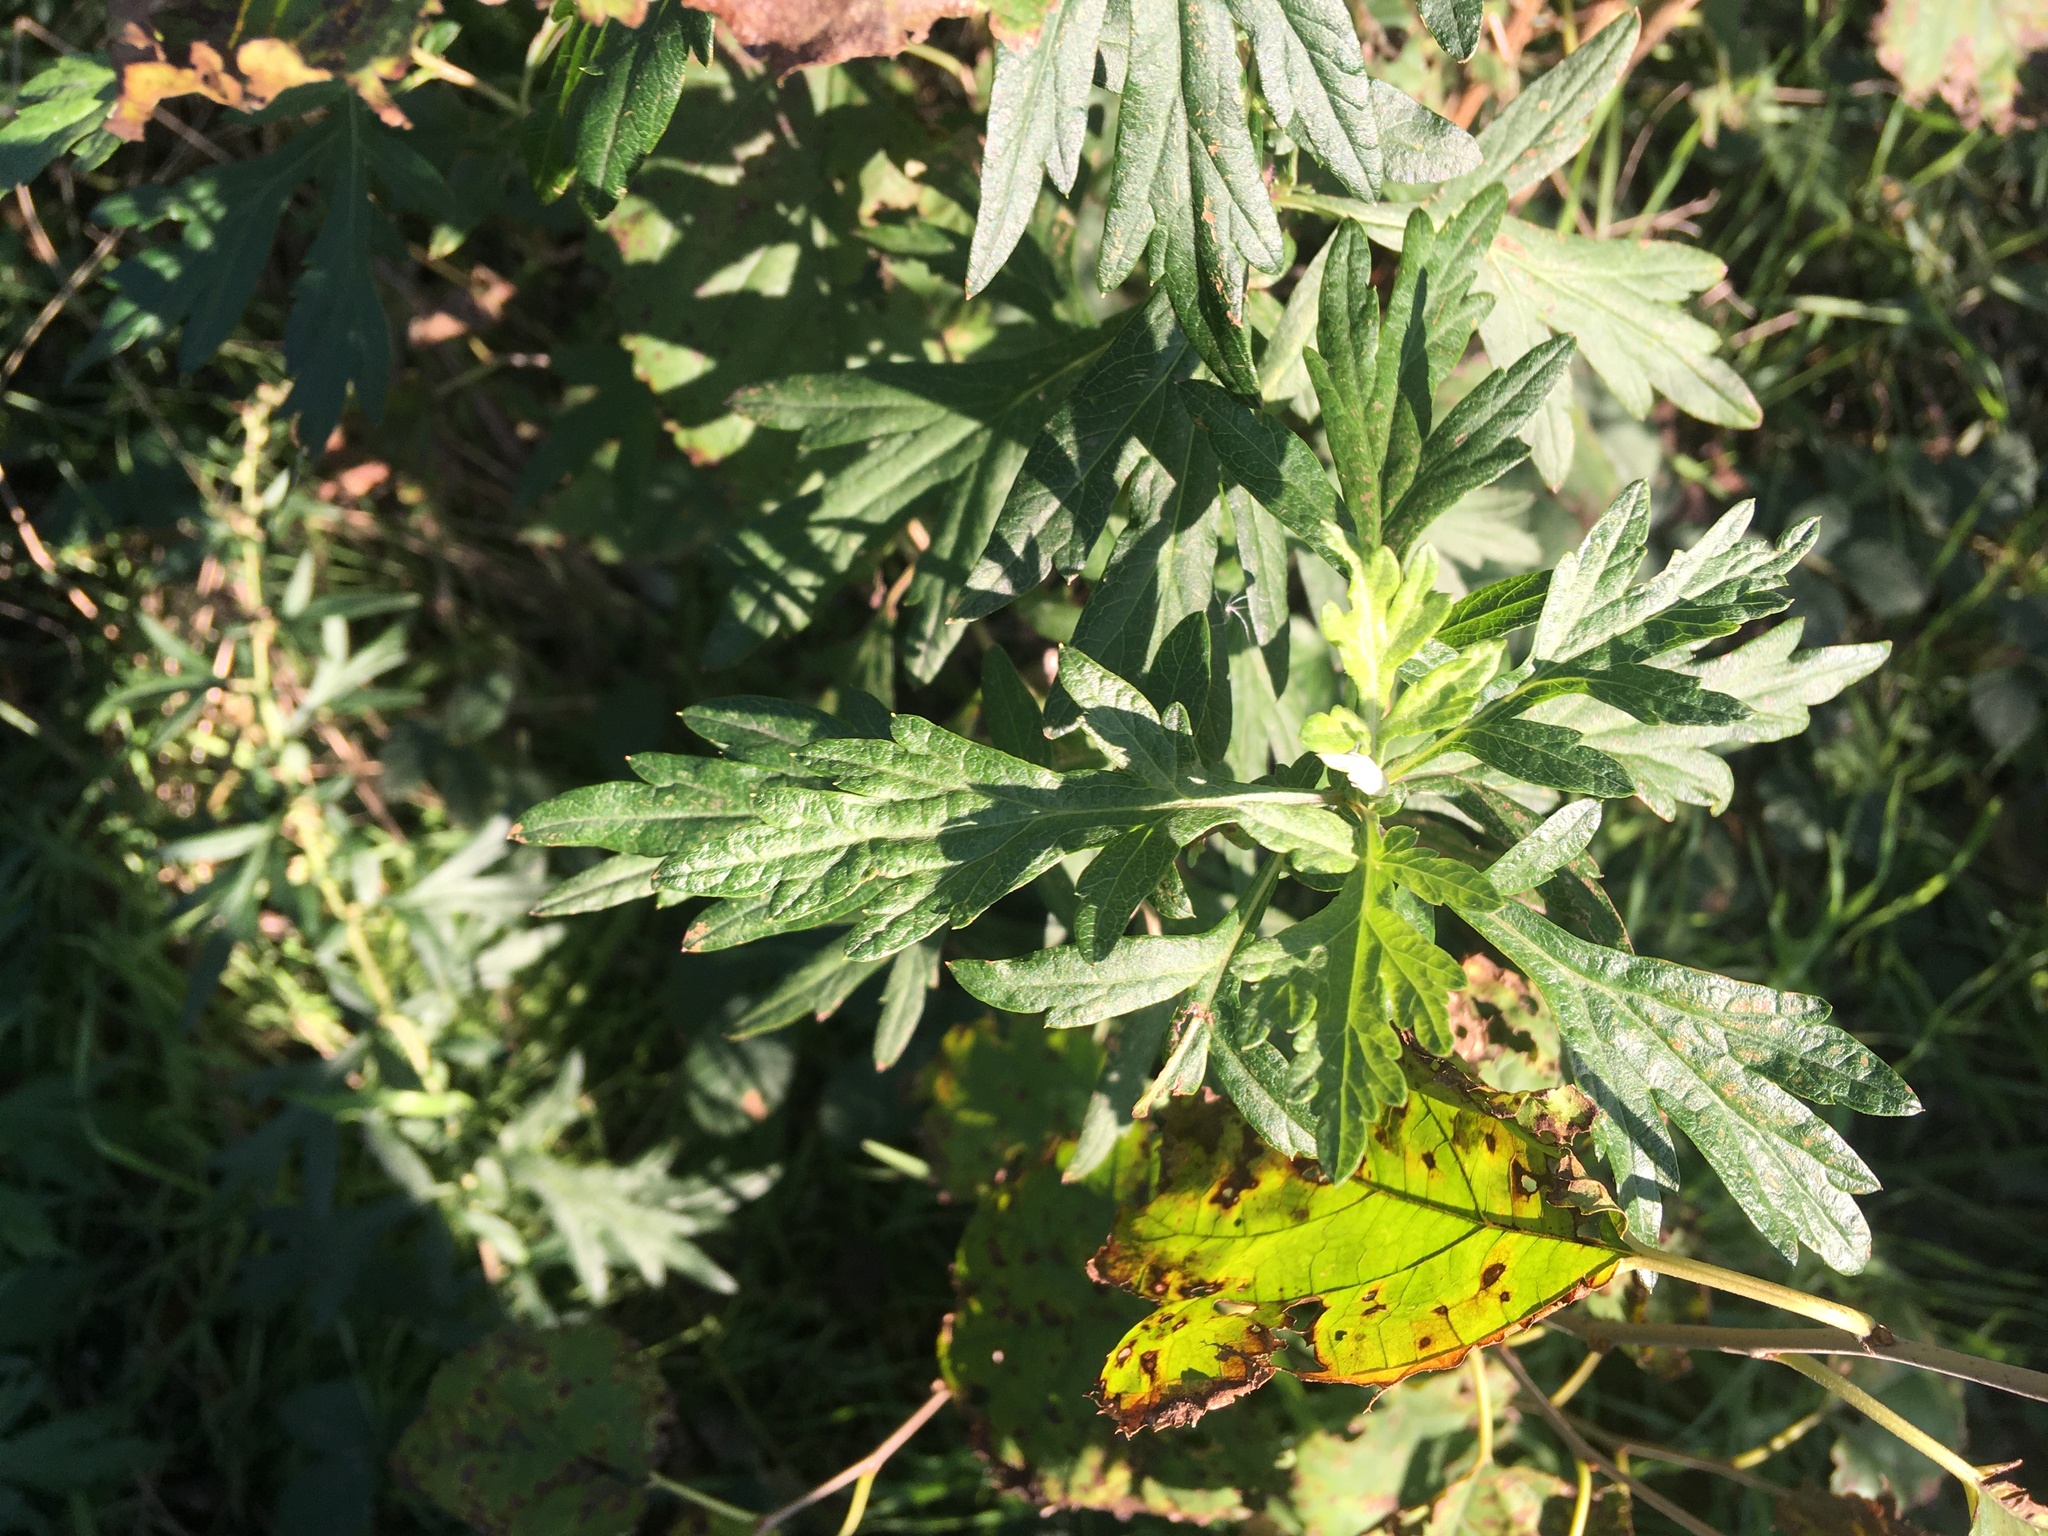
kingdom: Plantae
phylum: Tracheophyta
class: Magnoliopsida
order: Asterales
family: Asteraceae
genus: Artemisia
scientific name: Artemisia vulgaris
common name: Mugwort
